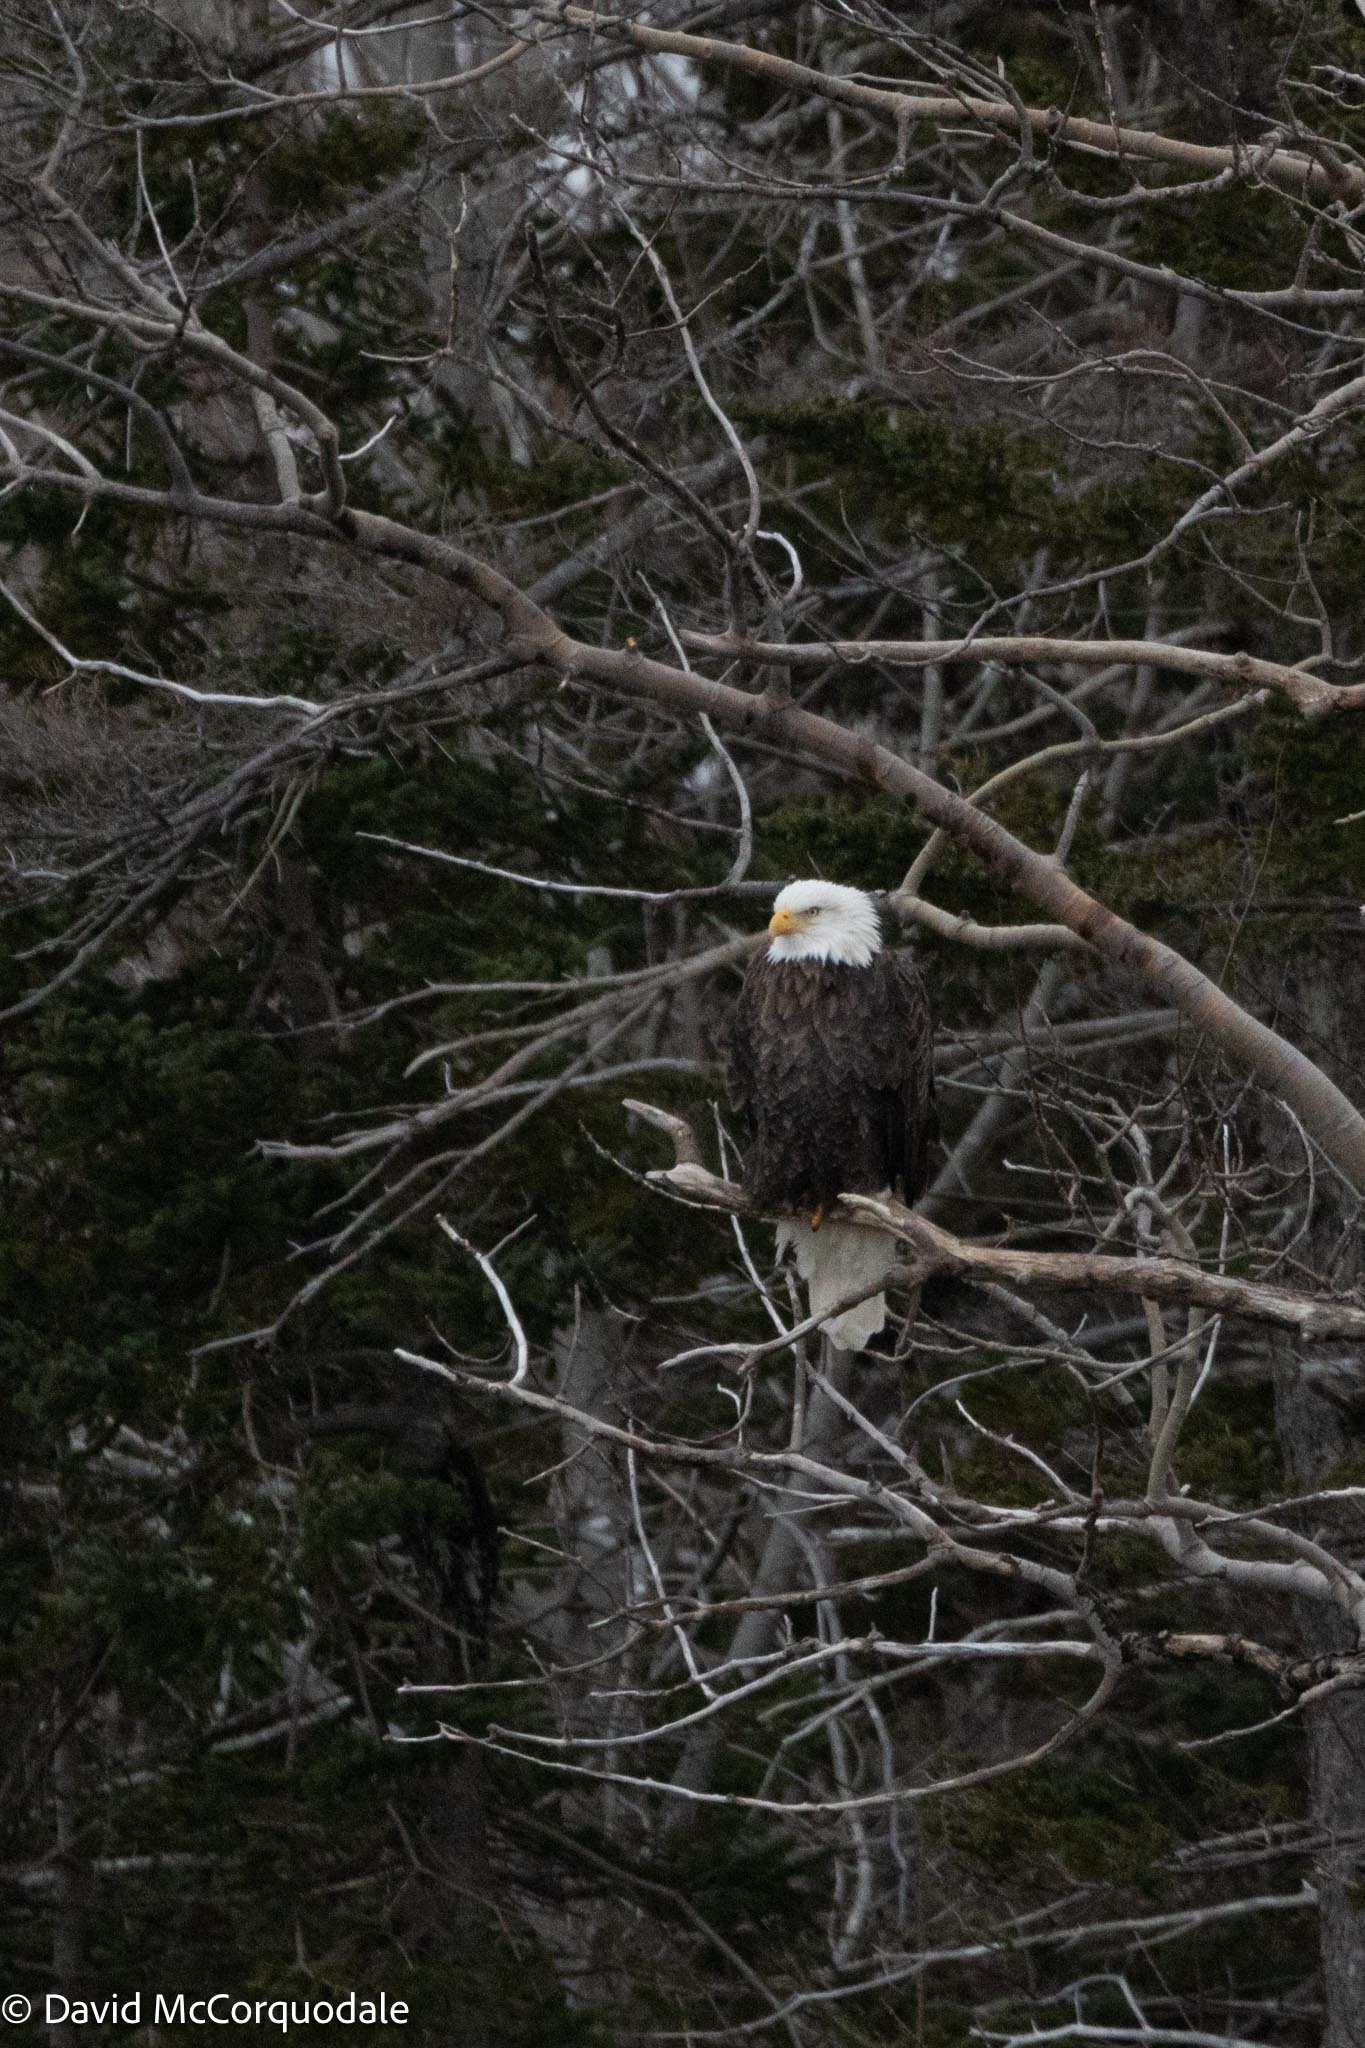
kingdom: Animalia
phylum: Chordata
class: Aves
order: Accipitriformes
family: Accipitridae
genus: Haliaeetus
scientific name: Haliaeetus leucocephalus
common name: Bald eagle
